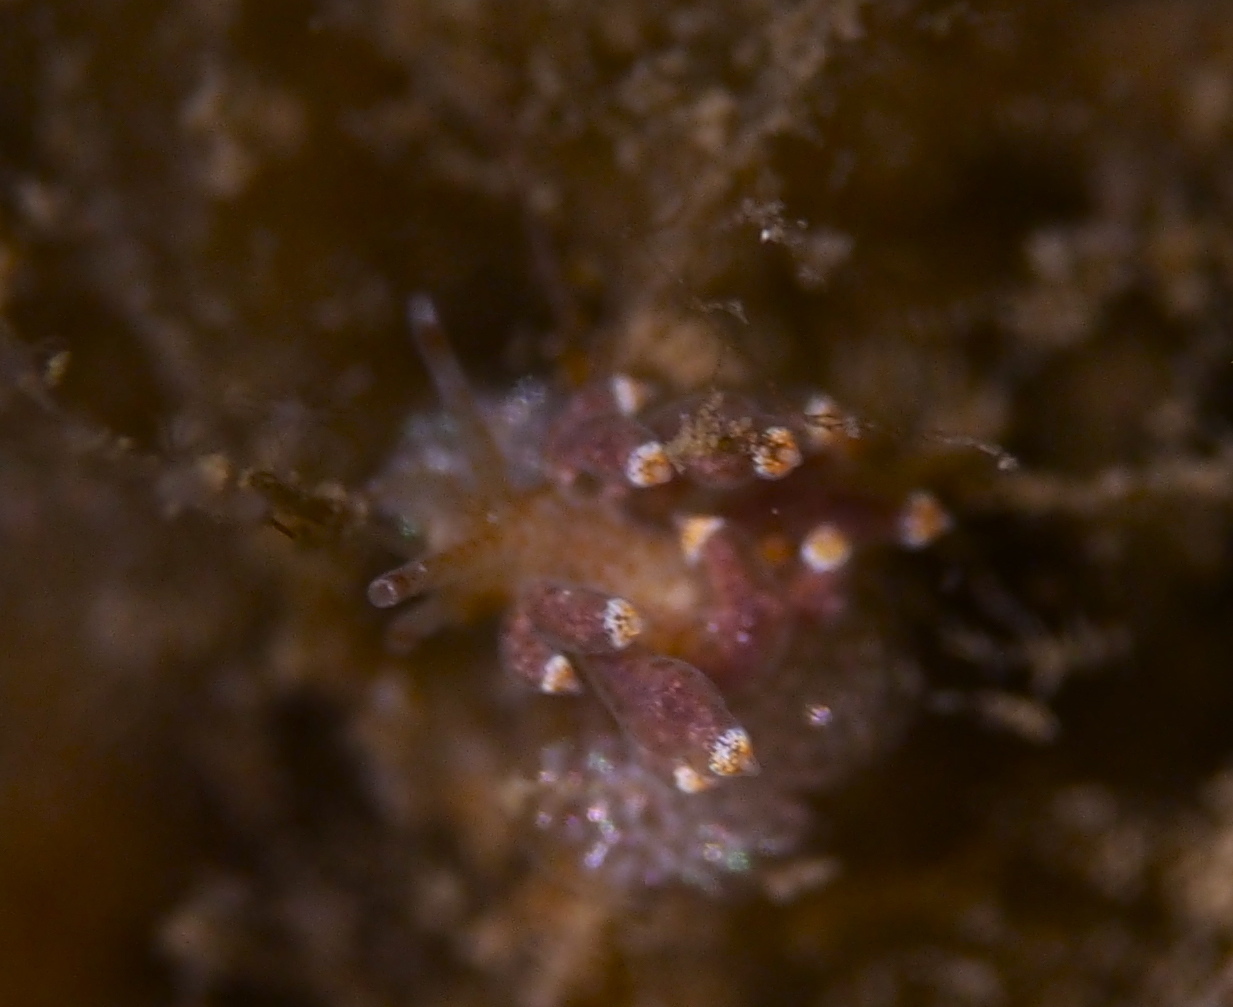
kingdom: Animalia
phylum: Mollusca
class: Gastropoda
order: Nudibranchia
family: Eubranchidae
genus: Eubranchus
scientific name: Eubranchus exiguus
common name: Balloon aeolis
